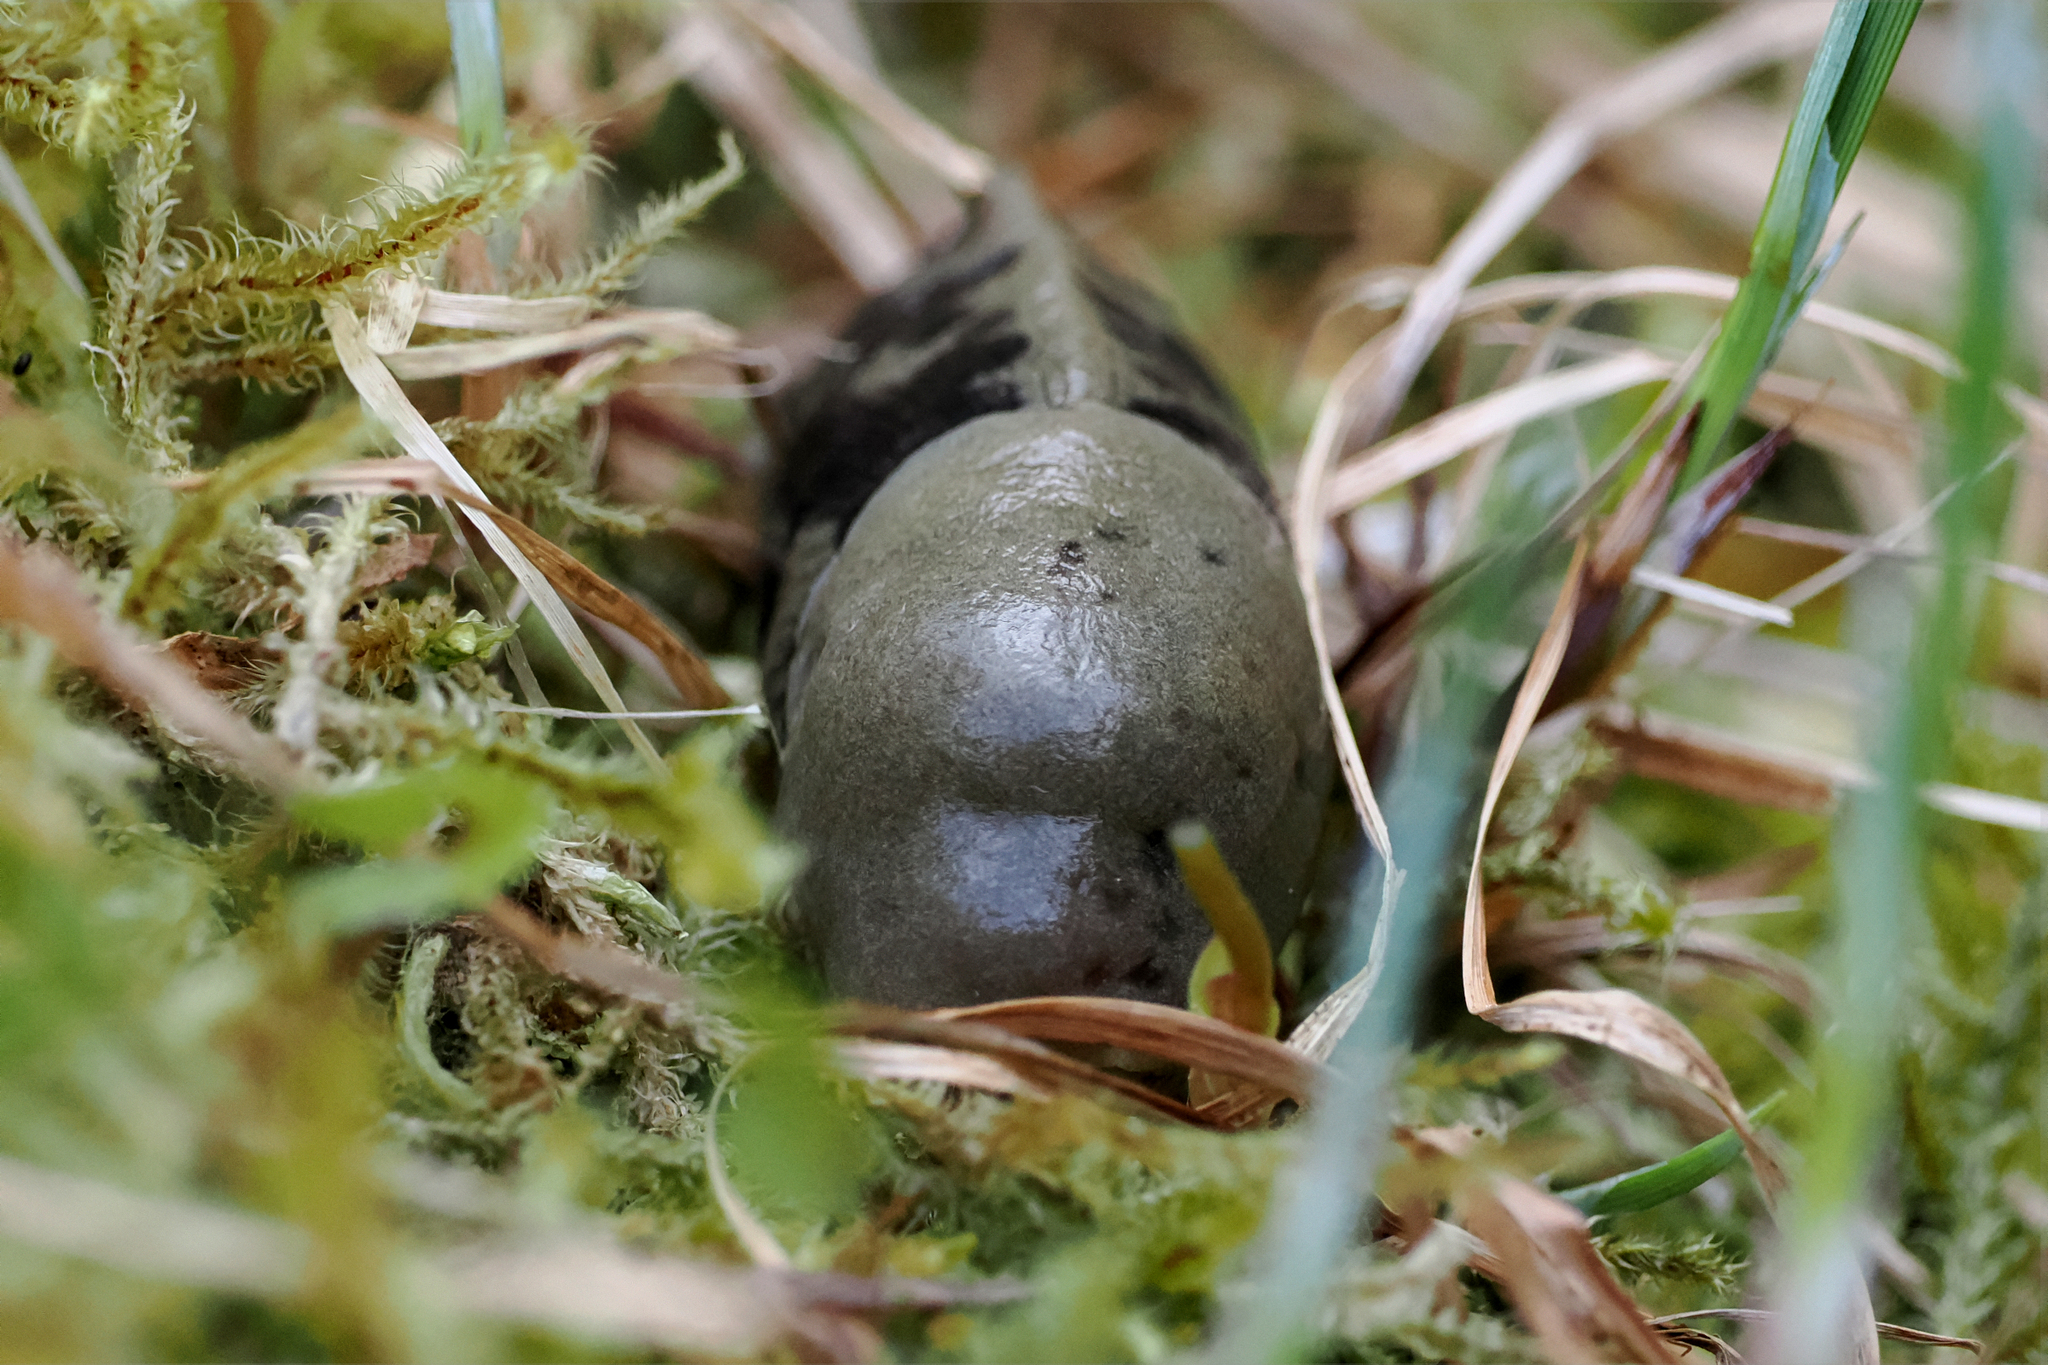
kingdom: Animalia
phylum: Mollusca
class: Gastropoda
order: Stylommatophora
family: Ariolimacidae
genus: Ariolimax
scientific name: Ariolimax columbianus
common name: Pacific banana slug
